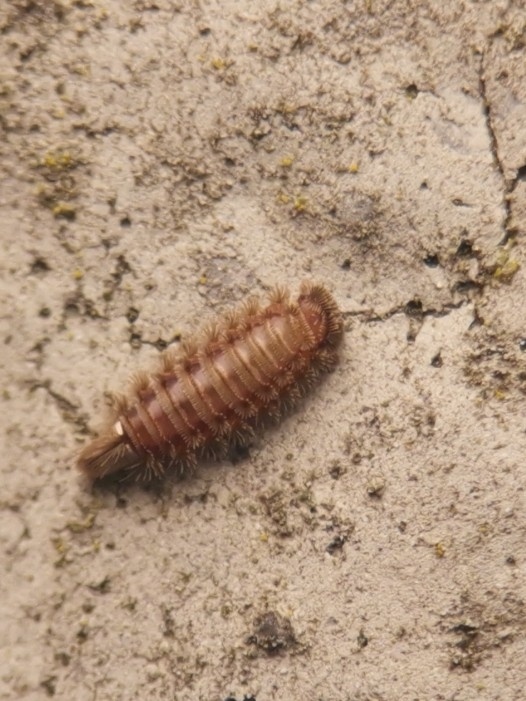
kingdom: Animalia
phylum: Arthropoda
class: Diplopoda
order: Polyxenida
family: Polyxenidae
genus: Polyxenus
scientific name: Polyxenus lagurus
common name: Bristly millipede
